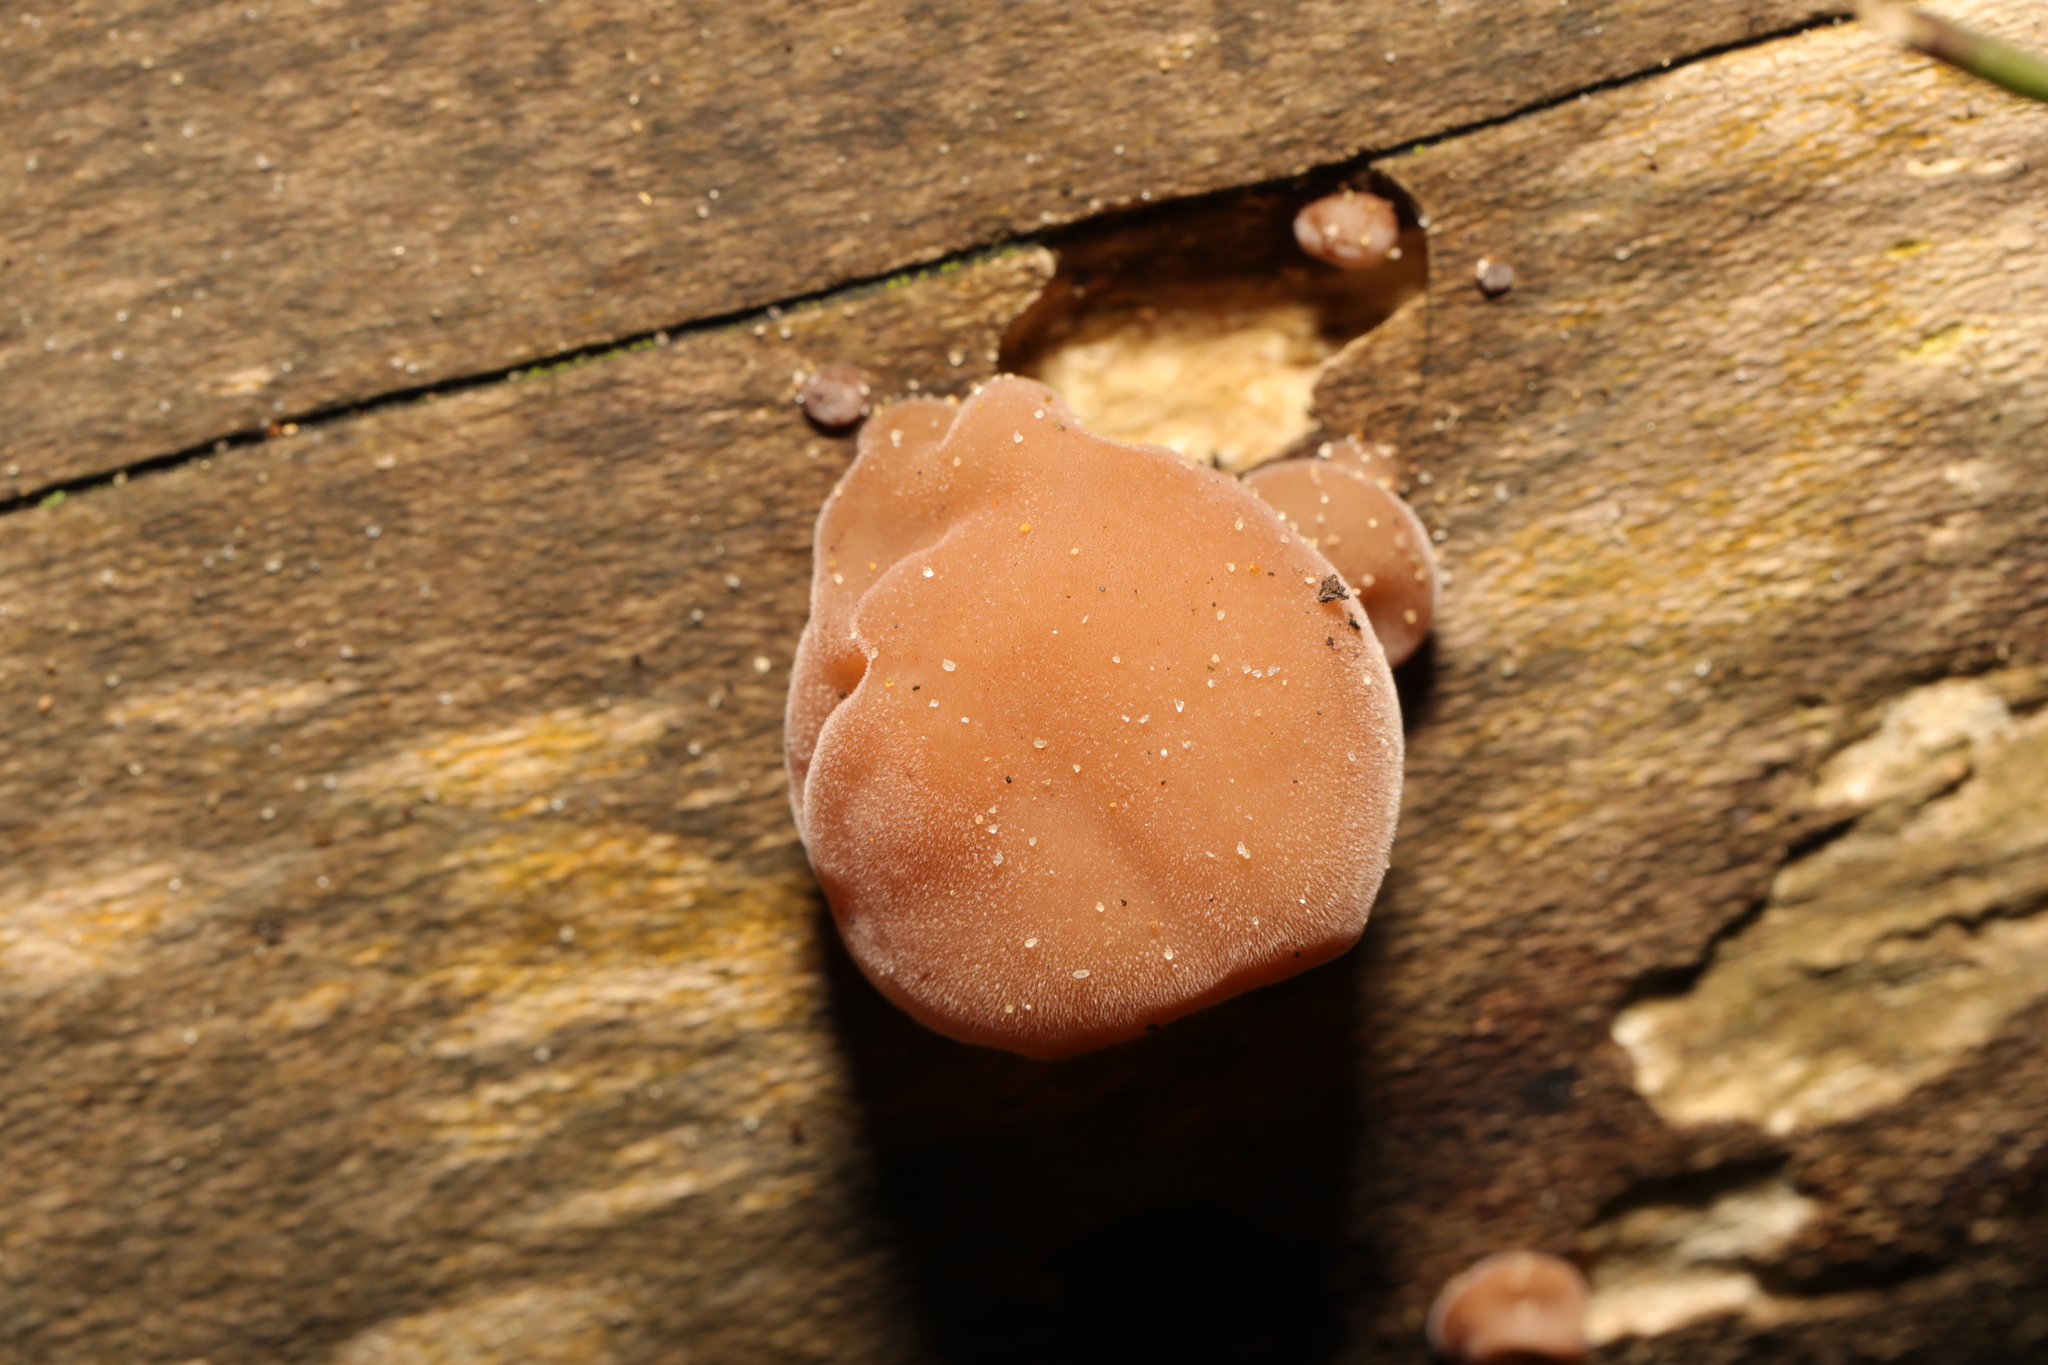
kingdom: Fungi
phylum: Basidiomycota
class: Agaricomycetes
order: Auriculariales
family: Auriculariaceae
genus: Auricularia
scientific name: Auricularia auricula-judae
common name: Jelly ear
